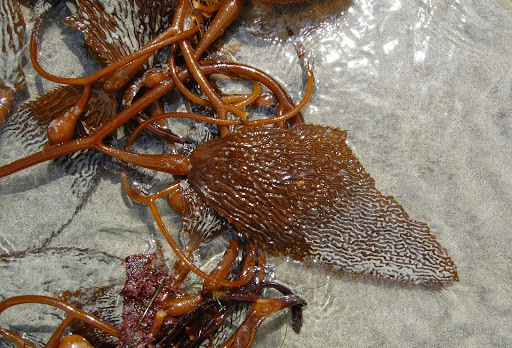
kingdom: Chromista
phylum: Ochrophyta
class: Phaeophyceae
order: Laminariales
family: Laminariaceae
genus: Macrocystis
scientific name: Macrocystis pyrifera
